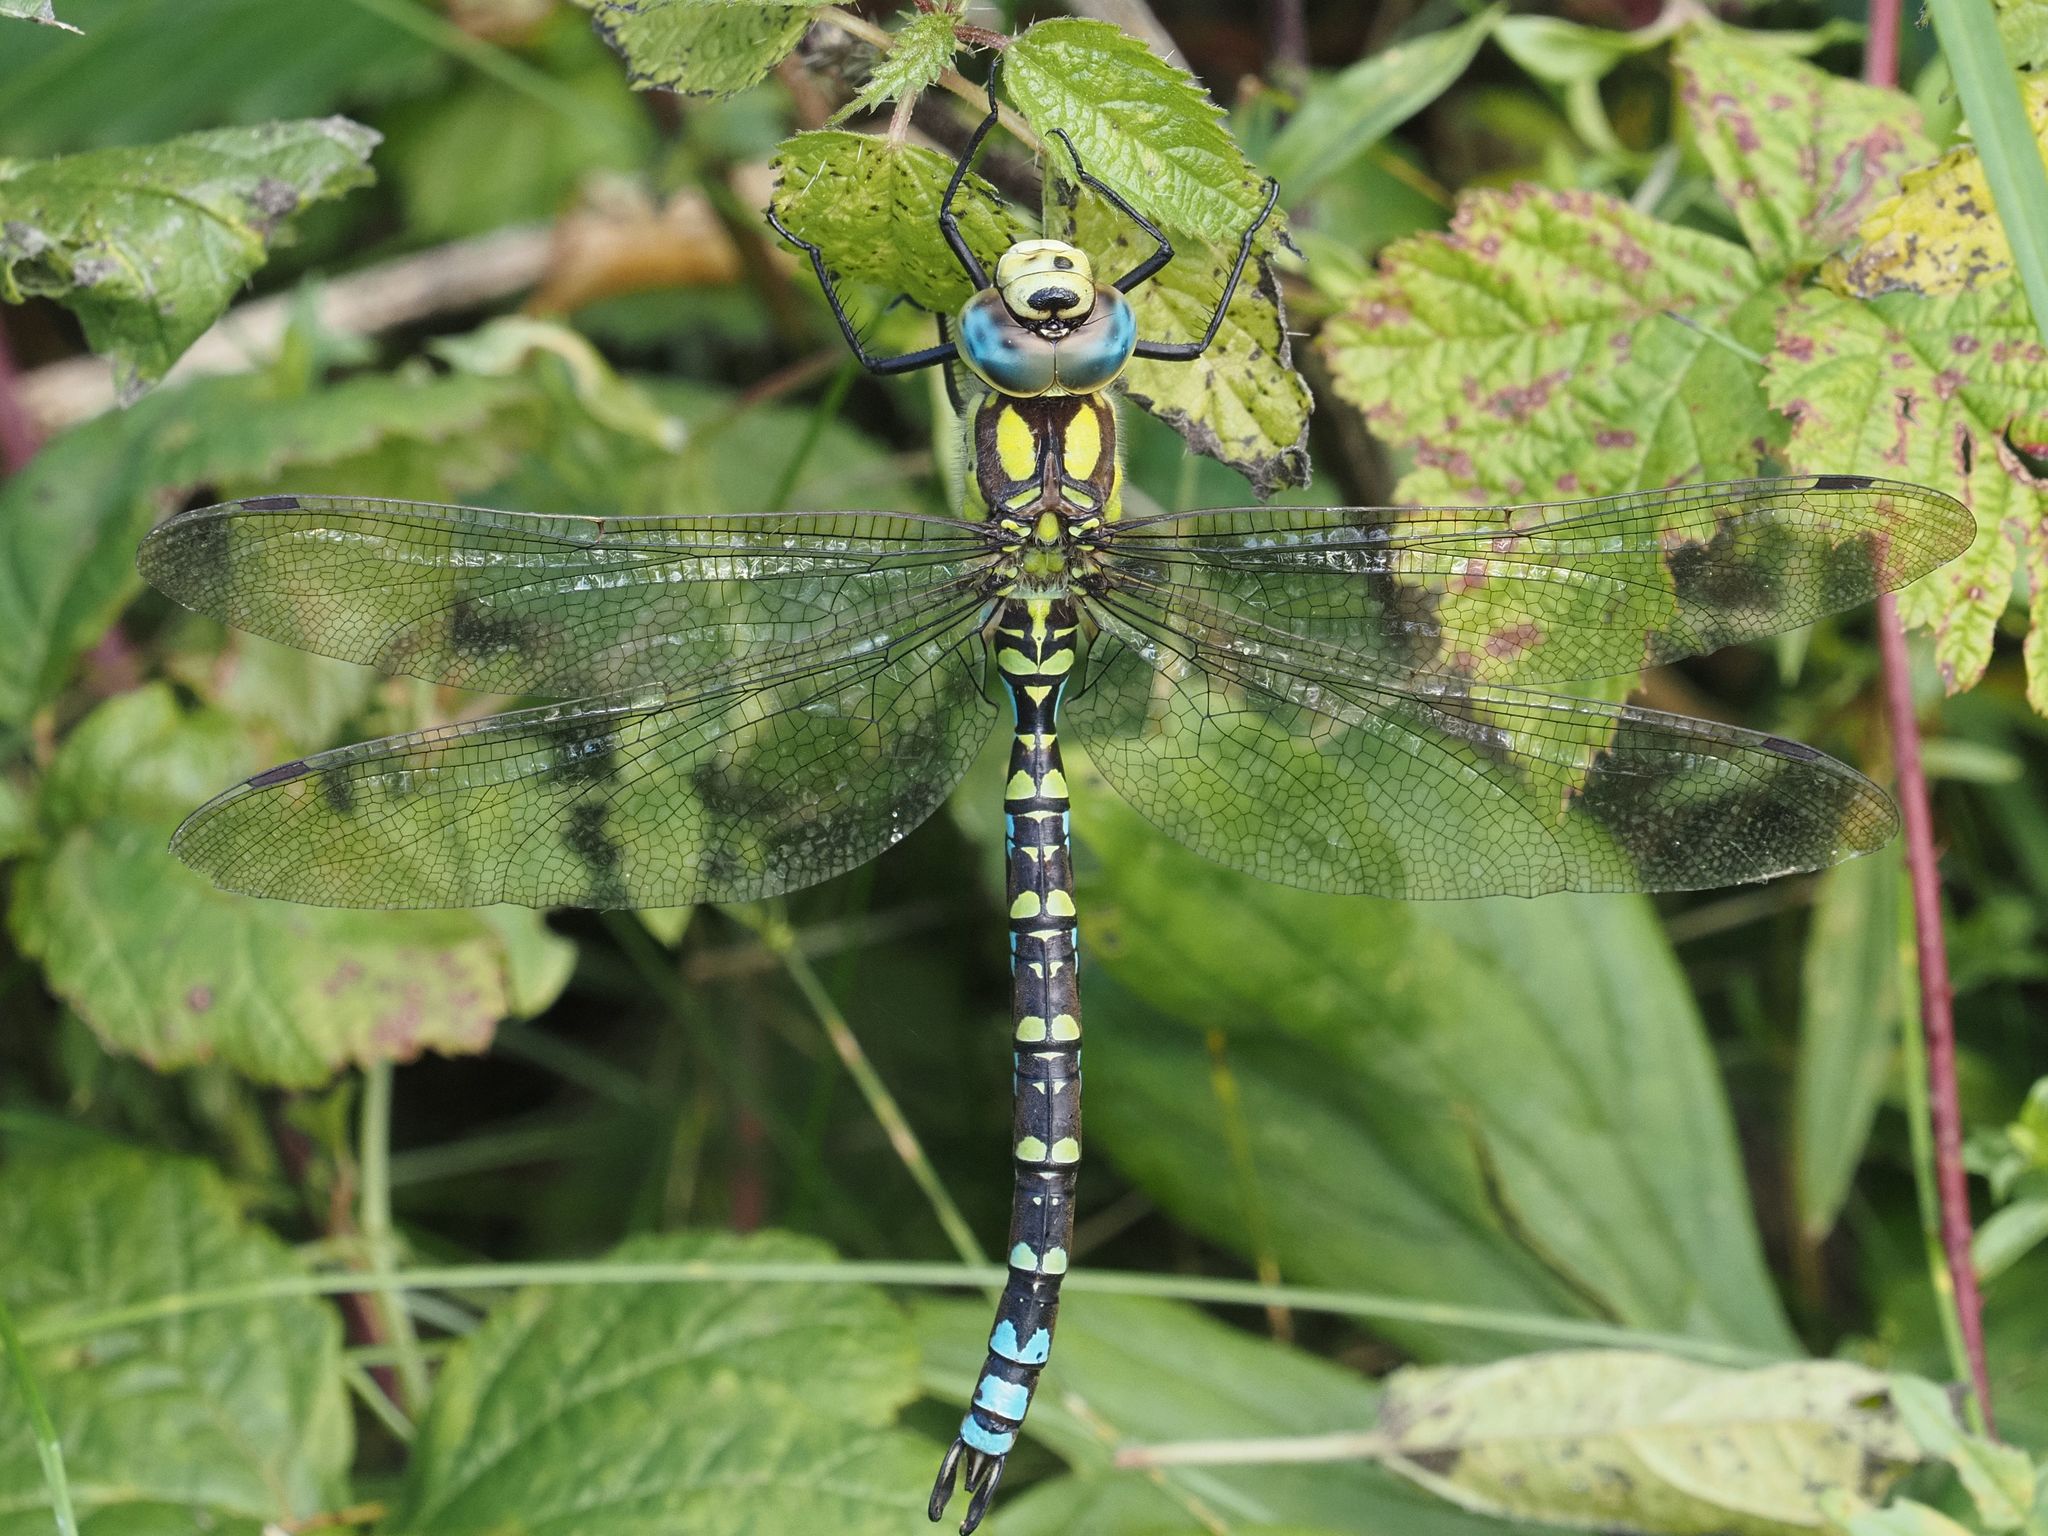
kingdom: Animalia
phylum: Arthropoda
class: Insecta
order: Odonata
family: Aeshnidae
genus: Aeshna
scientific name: Aeshna cyanea
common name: Southern hawker
